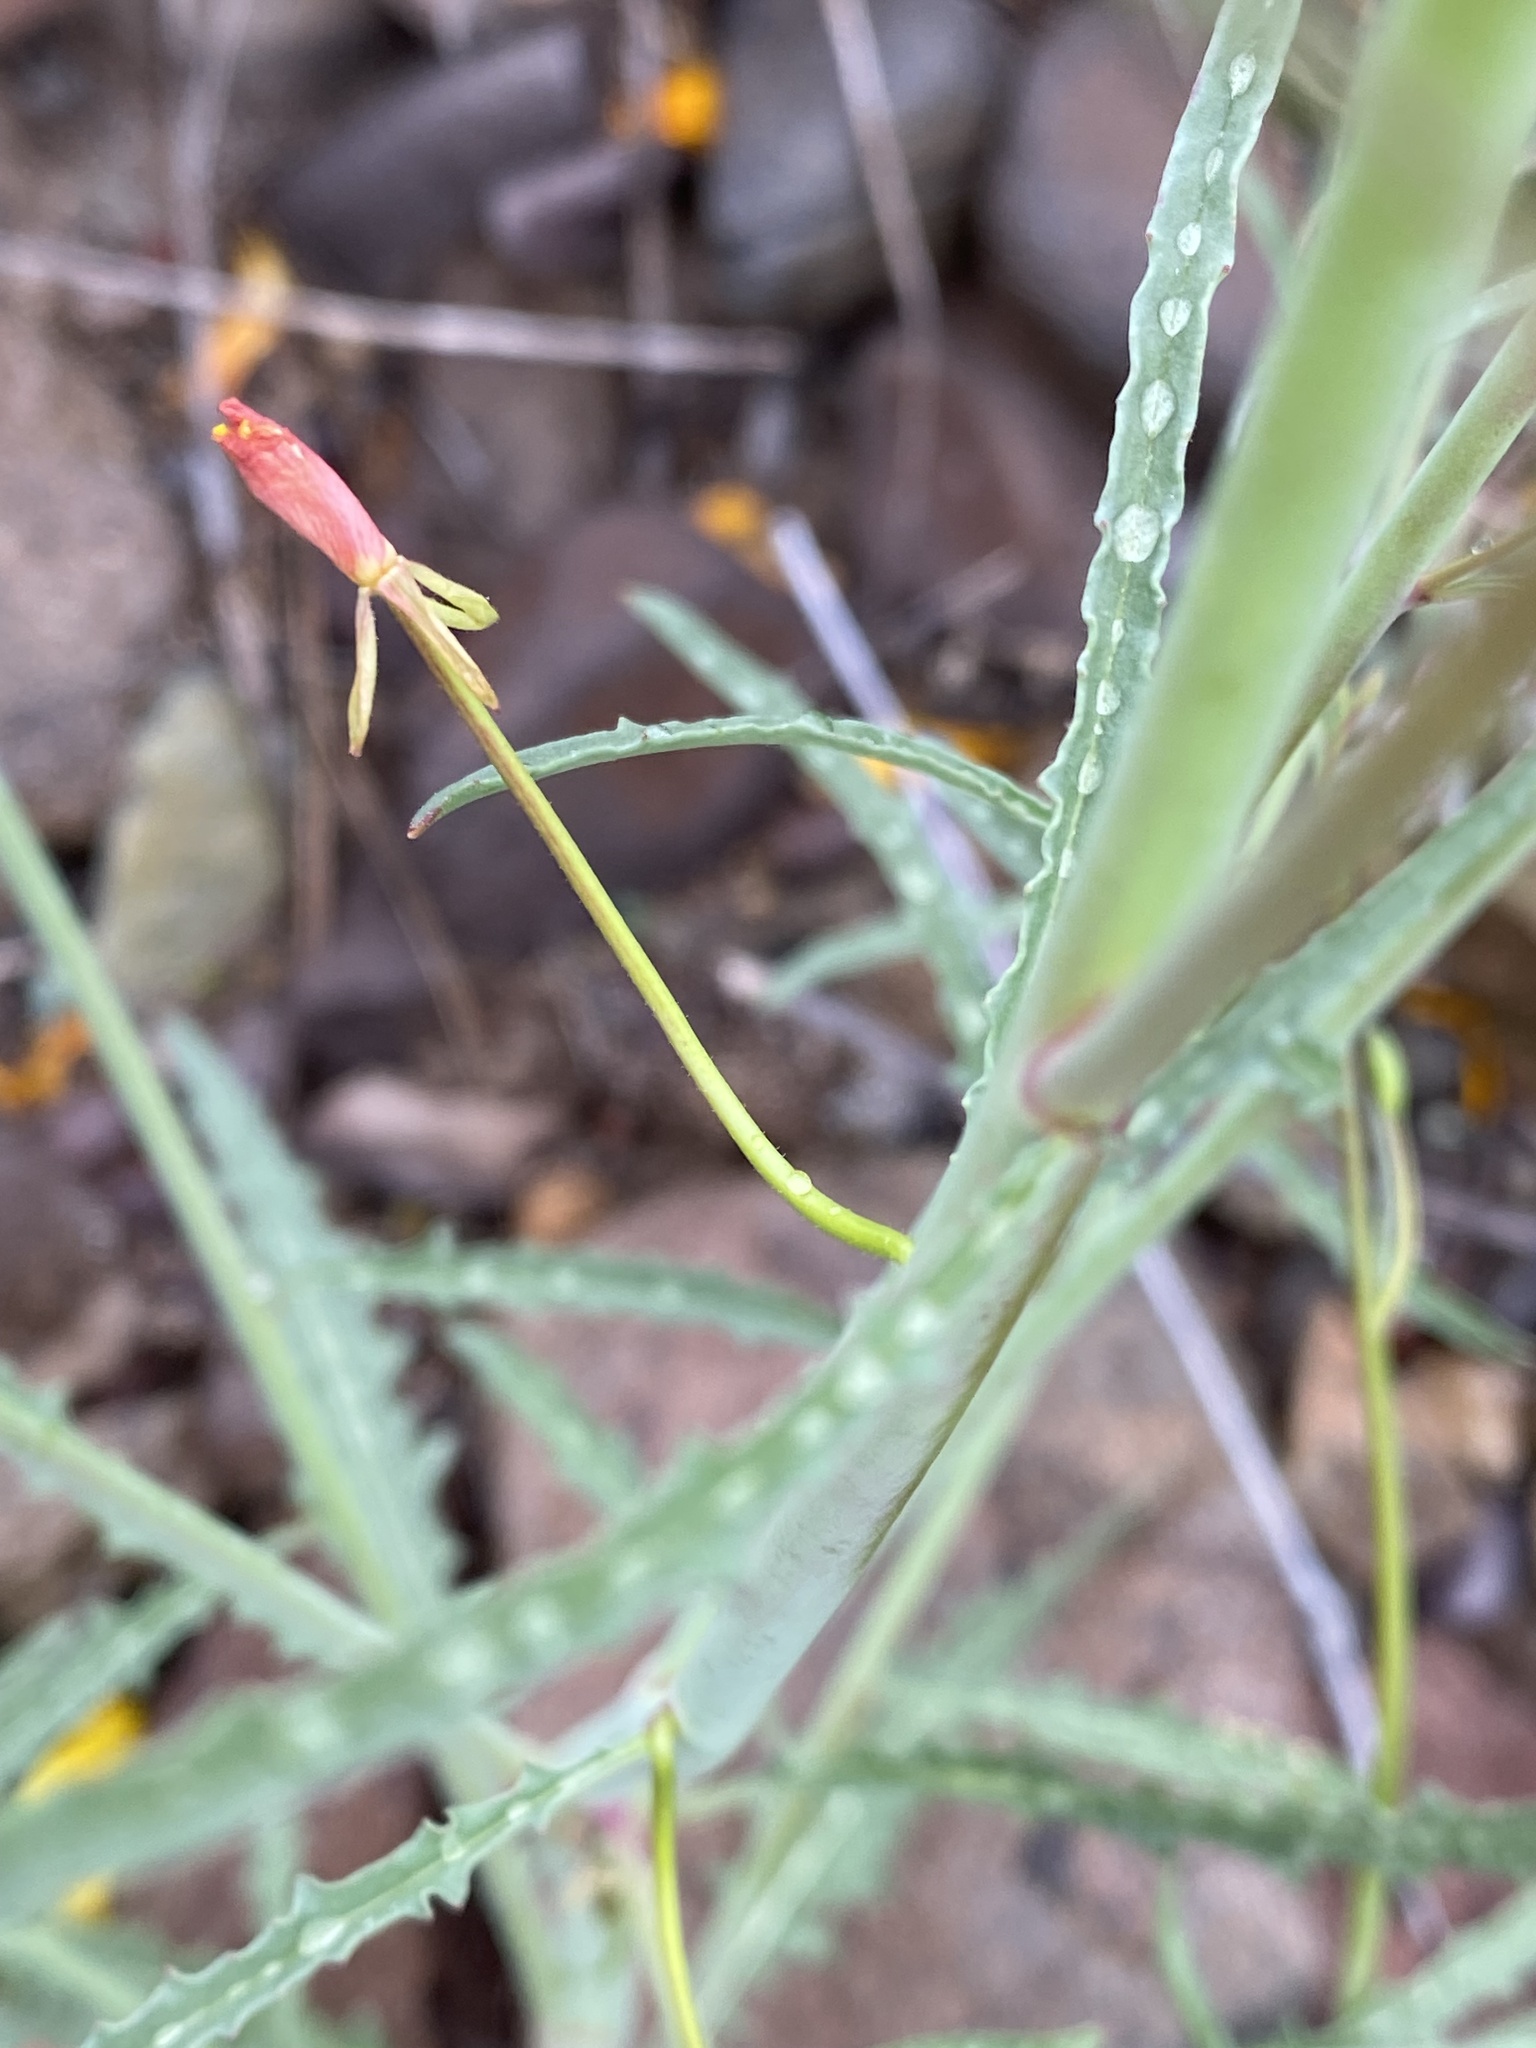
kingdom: Plantae
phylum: Tracheophyta
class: Magnoliopsida
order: Myrtales
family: Onagraceae
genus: Eulobus
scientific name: Eulobus californicus
